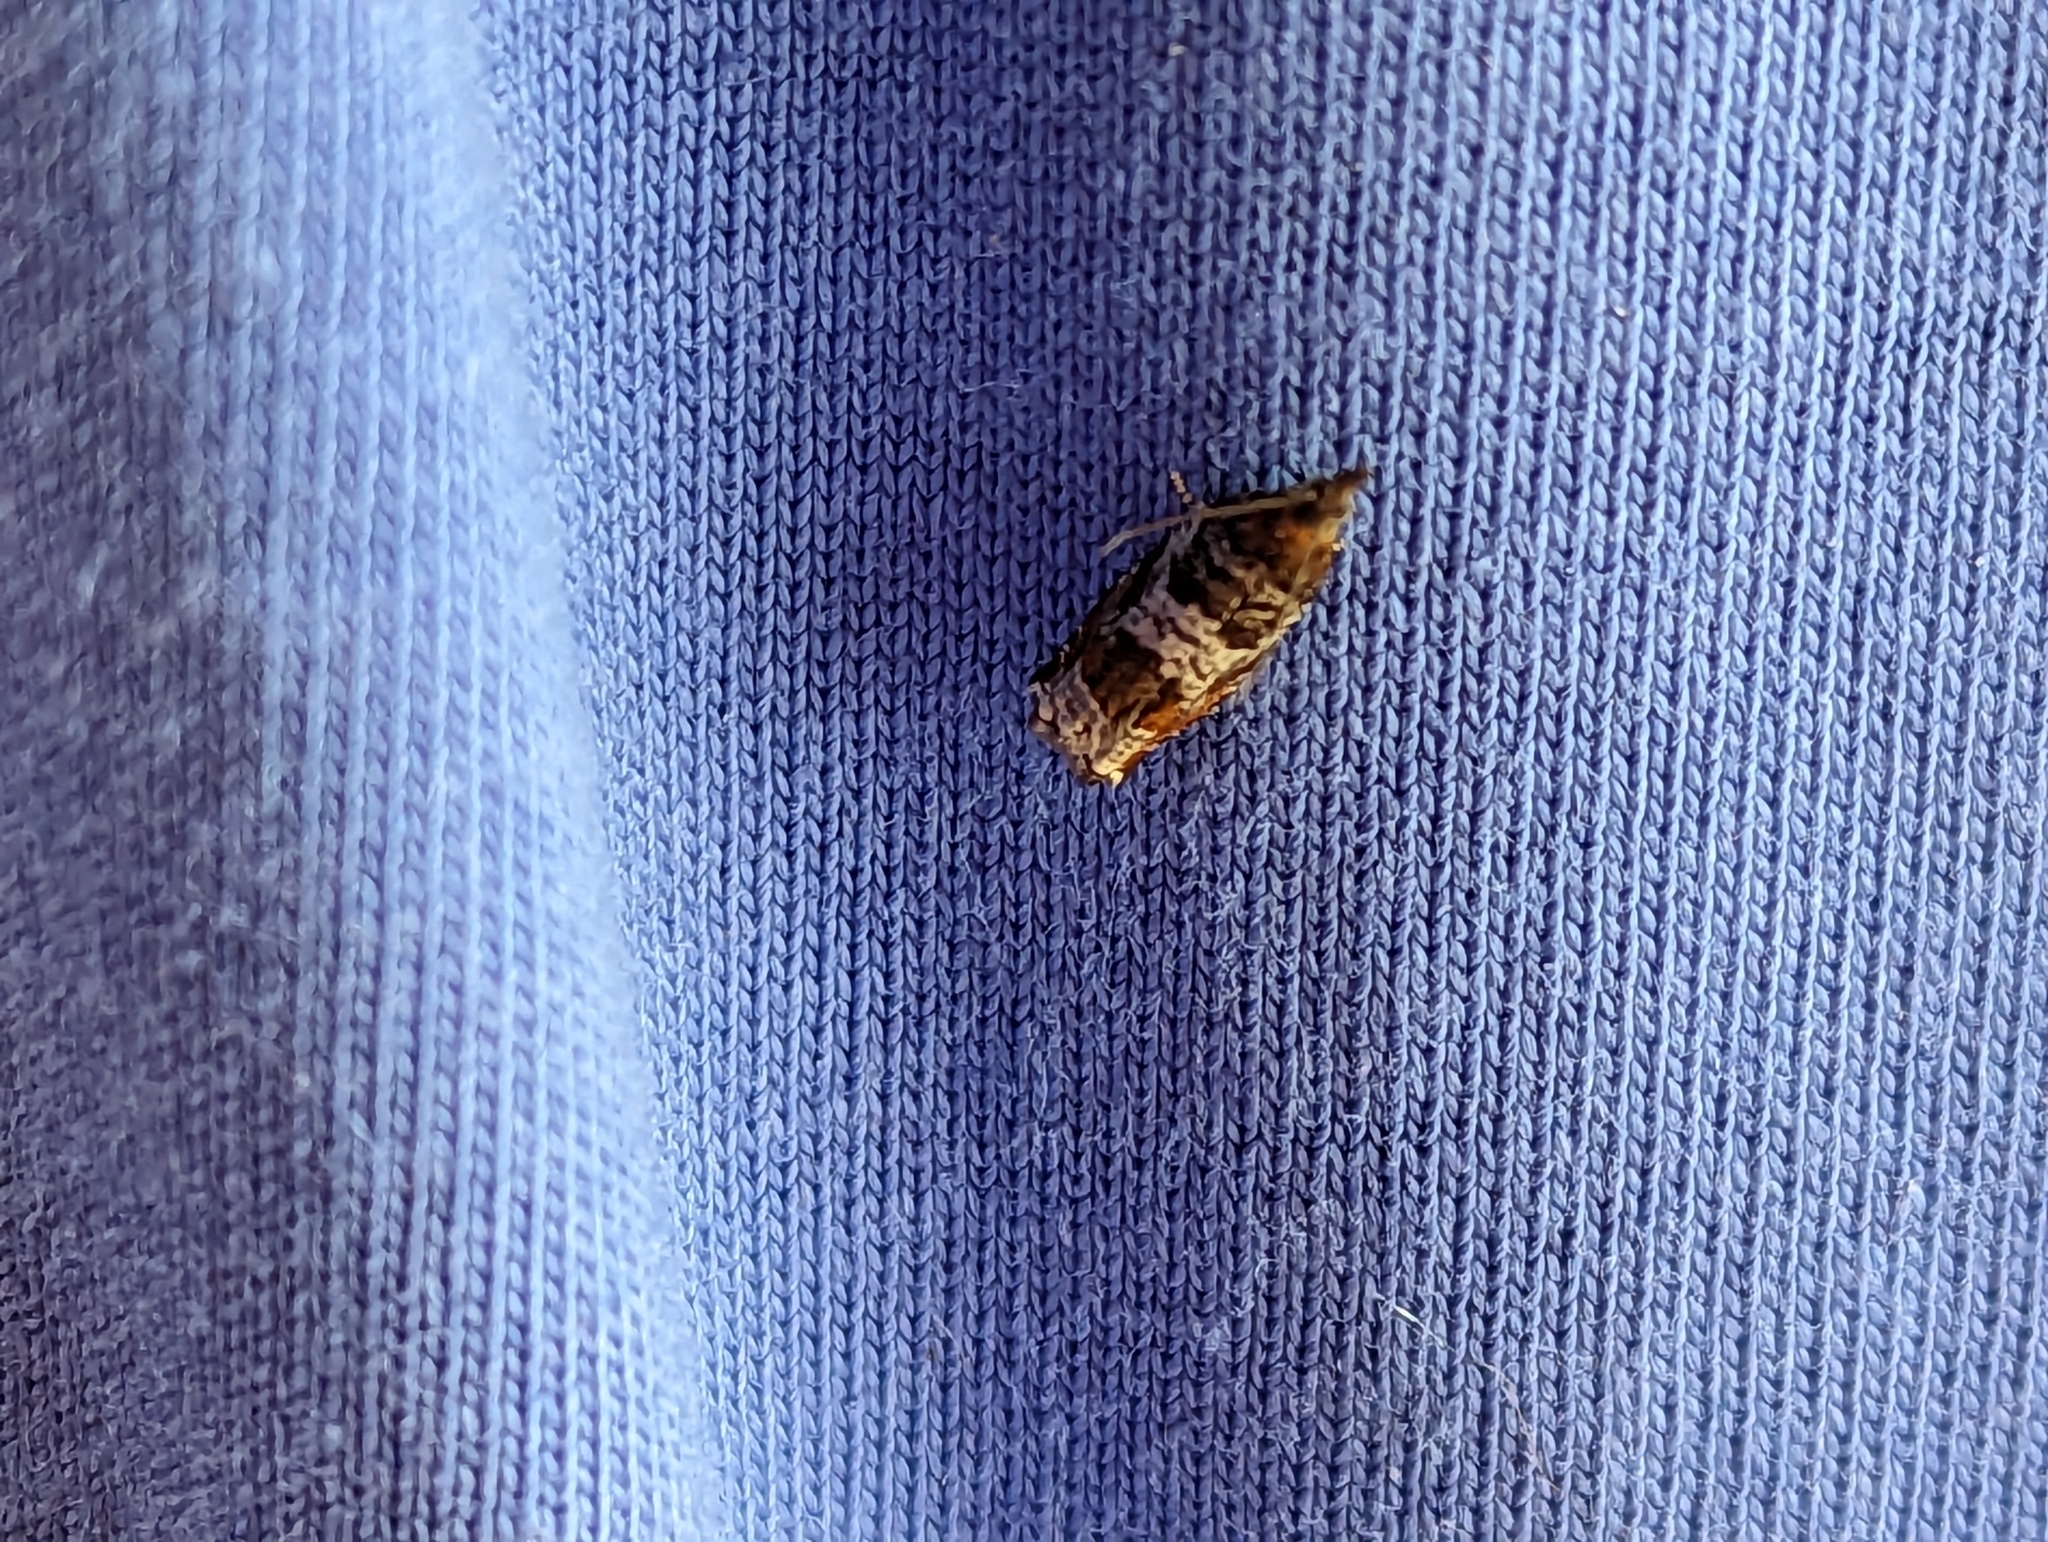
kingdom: Animalia
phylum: Arthropoda
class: Insecta
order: Lepidoptera
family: Tortricidae
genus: Ancylis
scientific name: Ancylis achatana
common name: Triangle-marked roller
